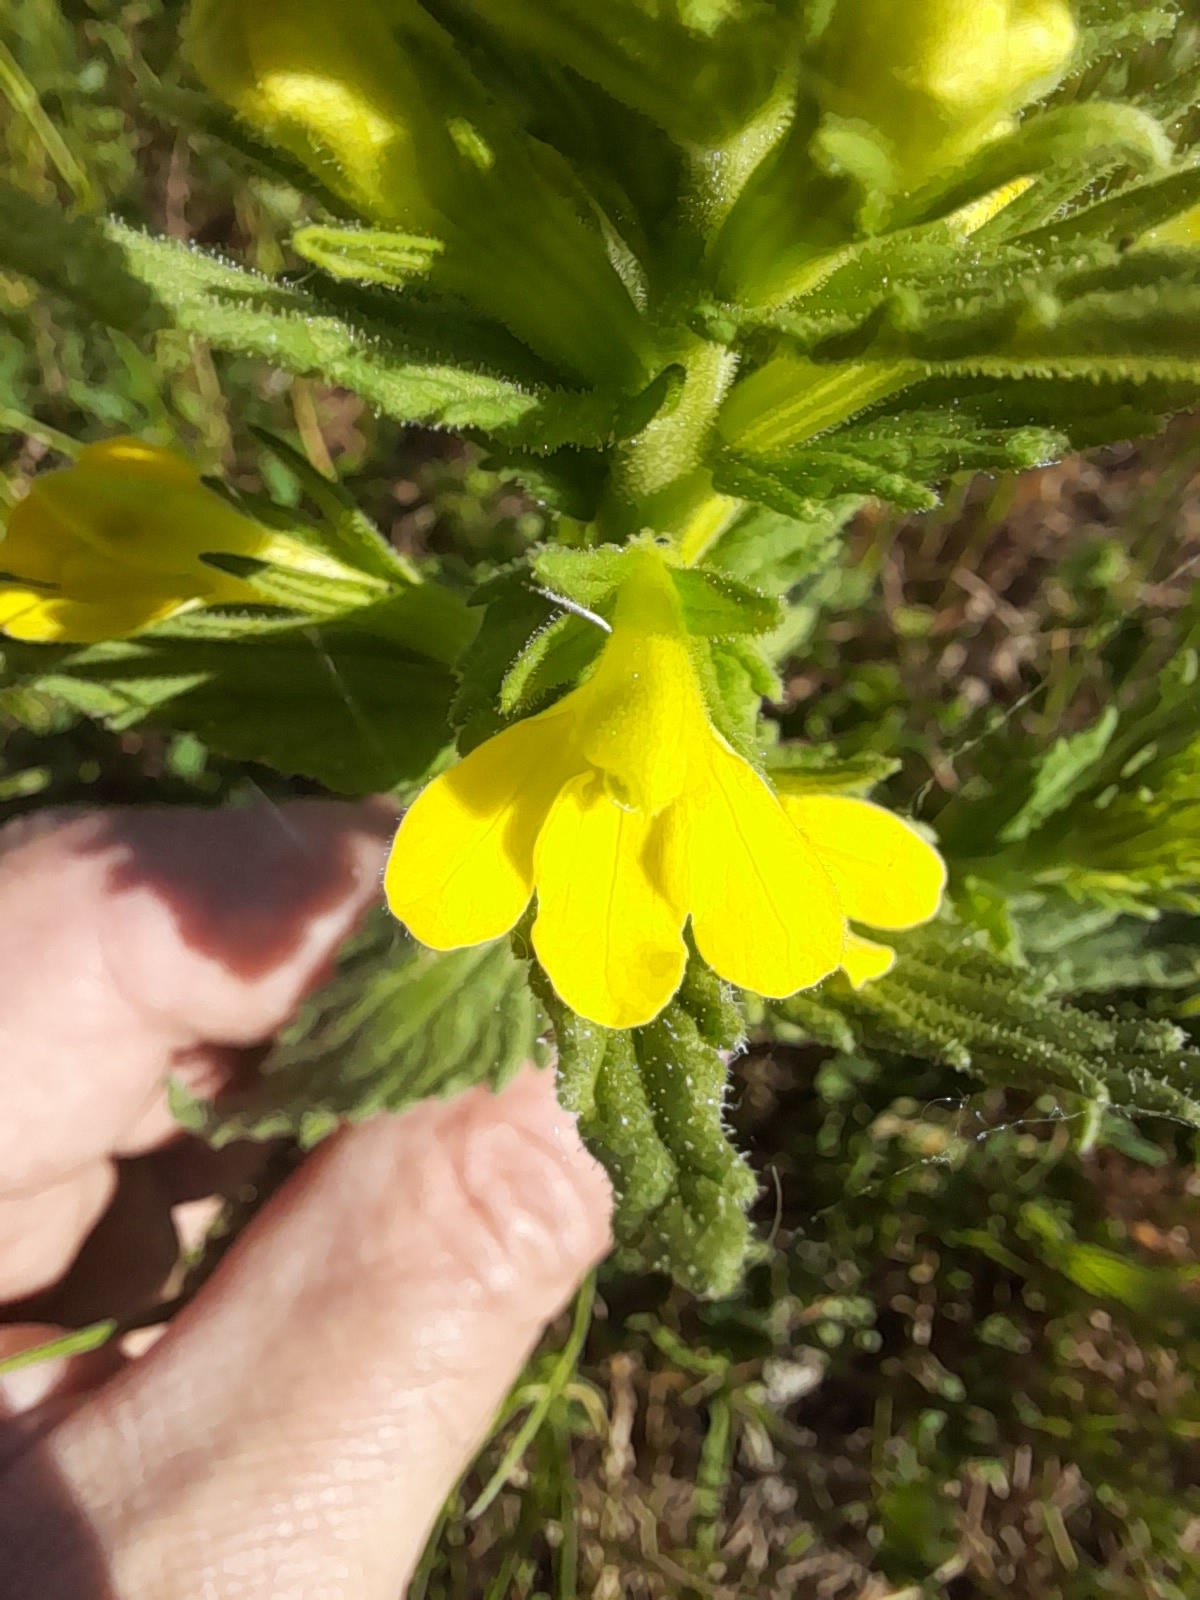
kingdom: Plantae
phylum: Tracheophyta
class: Magnoliopsida
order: Lamiales
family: Orobanchaceae
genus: Bellardia
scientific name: Bellardia viscosa
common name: Sticky parentucellia
